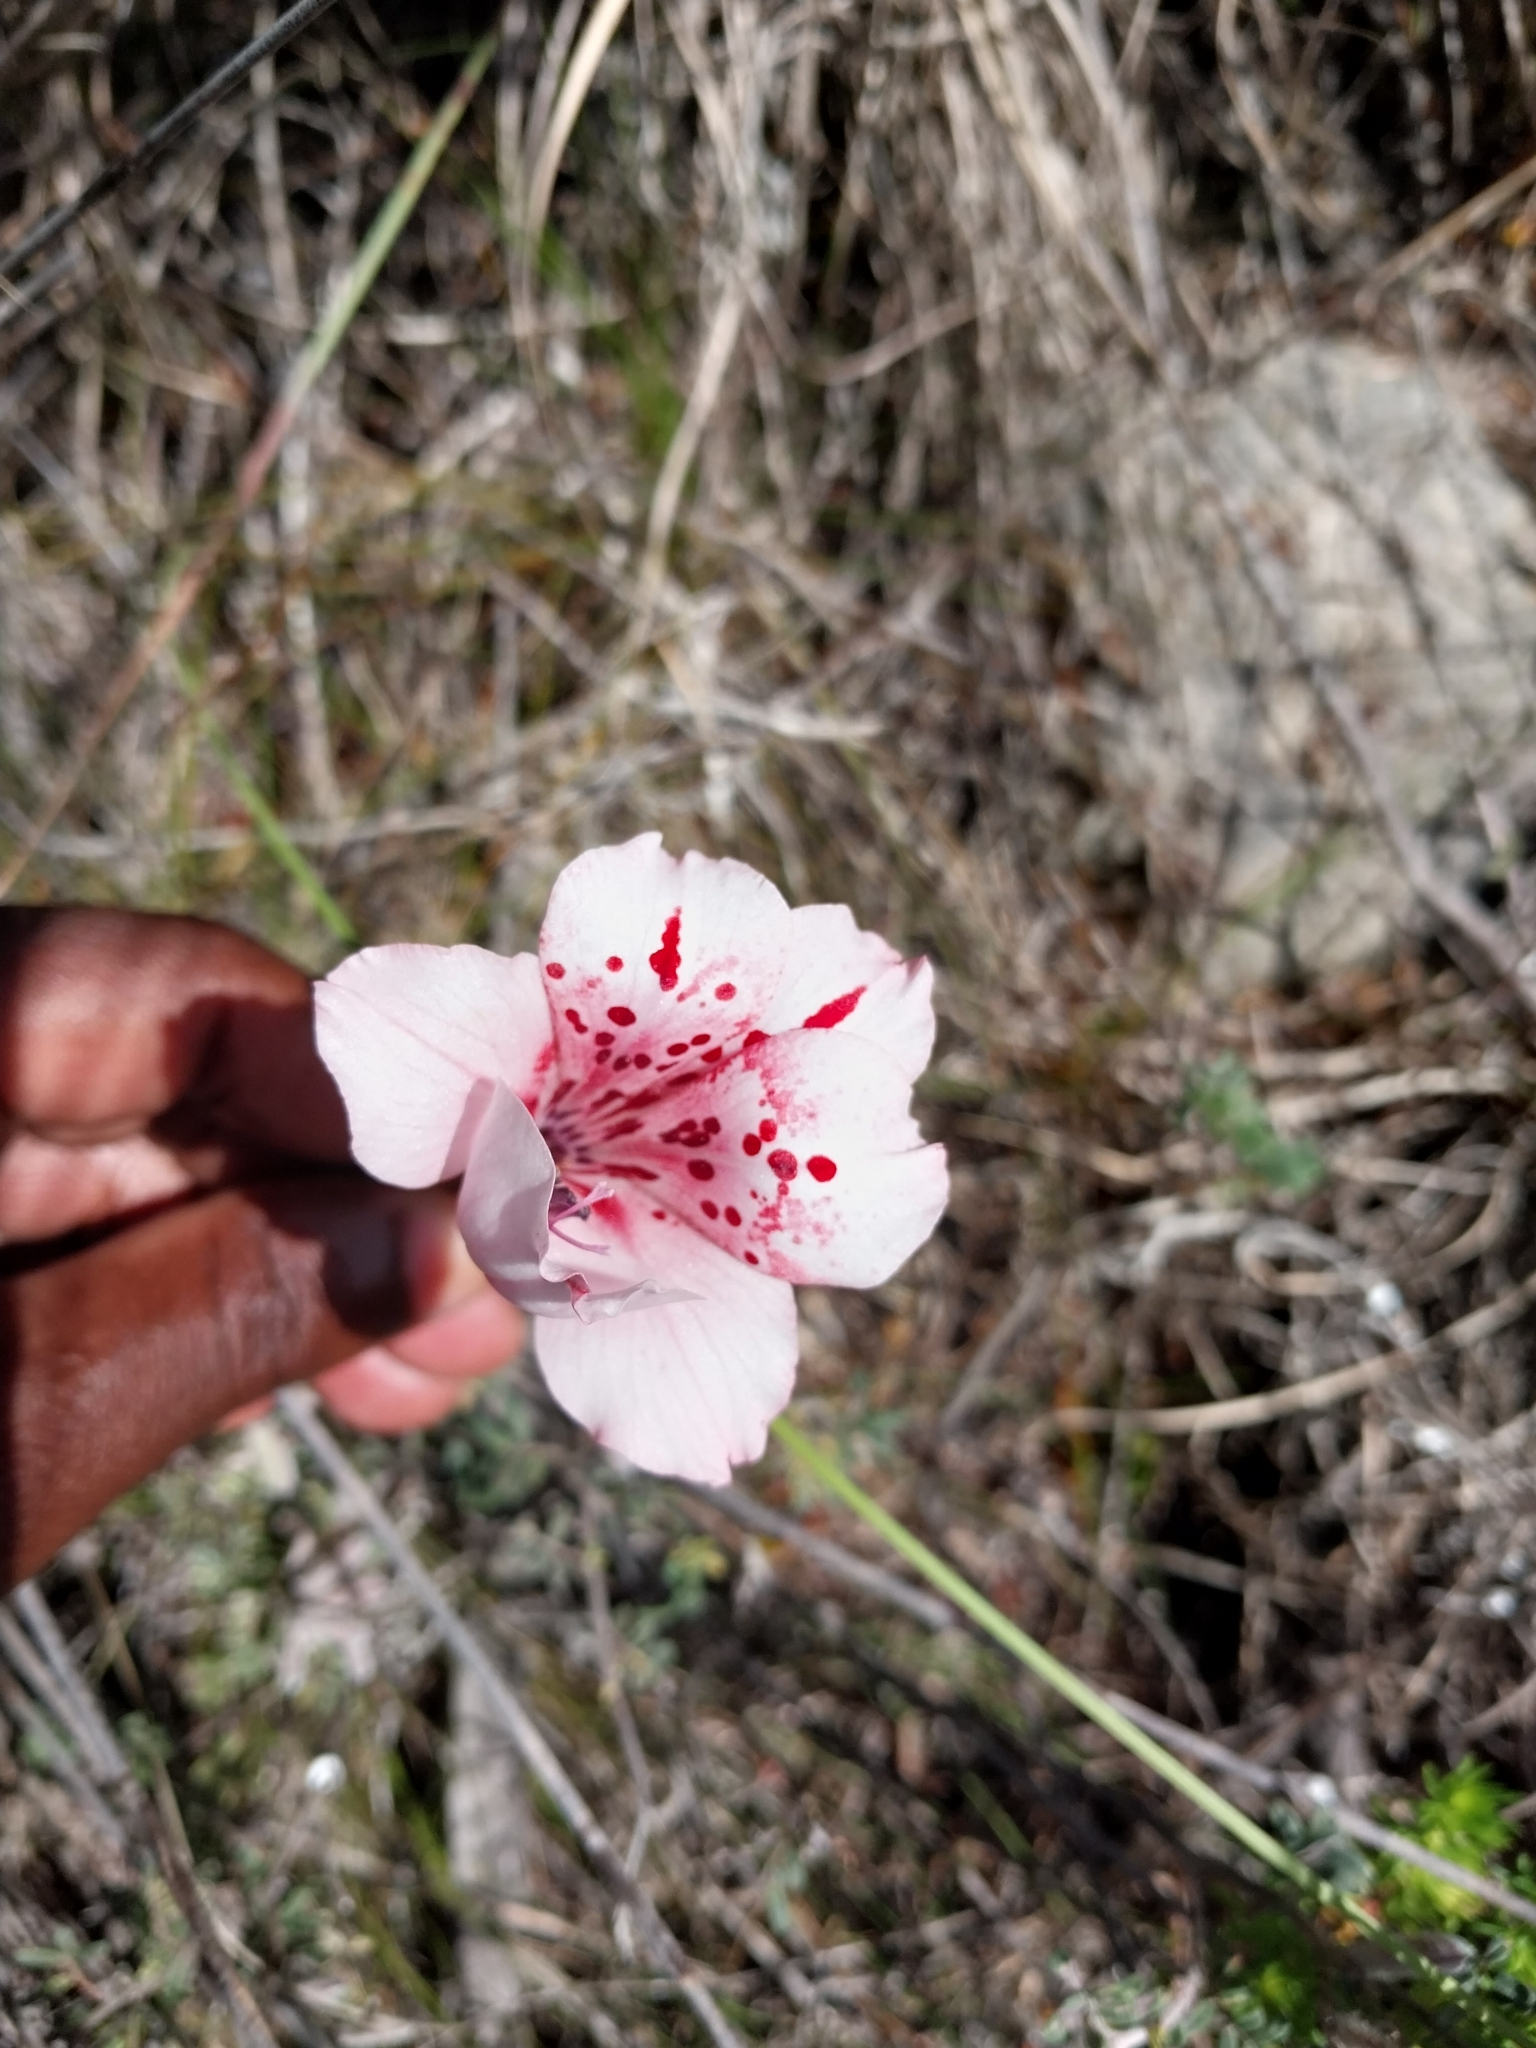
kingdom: Plantae
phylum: Tracheophyta
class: Liliopsida
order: Asparagales
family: Iridaceae
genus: Gladiolus
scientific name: Gladiolus variegatus
